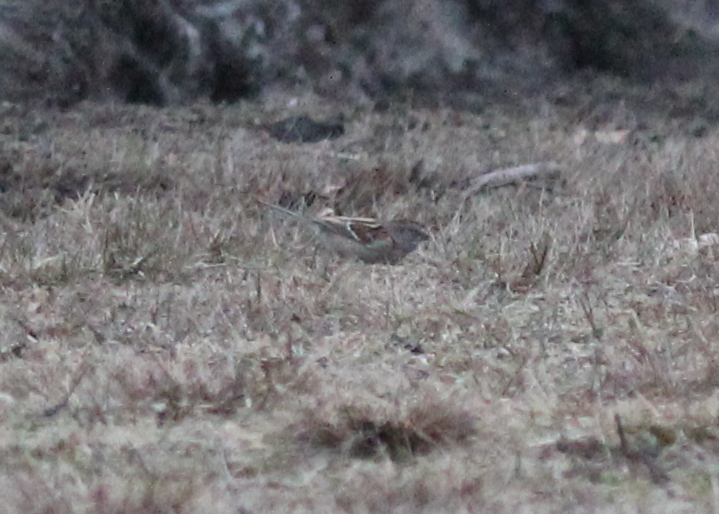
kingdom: Animalia
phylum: Chordata
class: Aves
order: Passeriformes
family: Passerellidae
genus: Spizelloides
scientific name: Spizelloides arborea
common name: American tree sparrow
